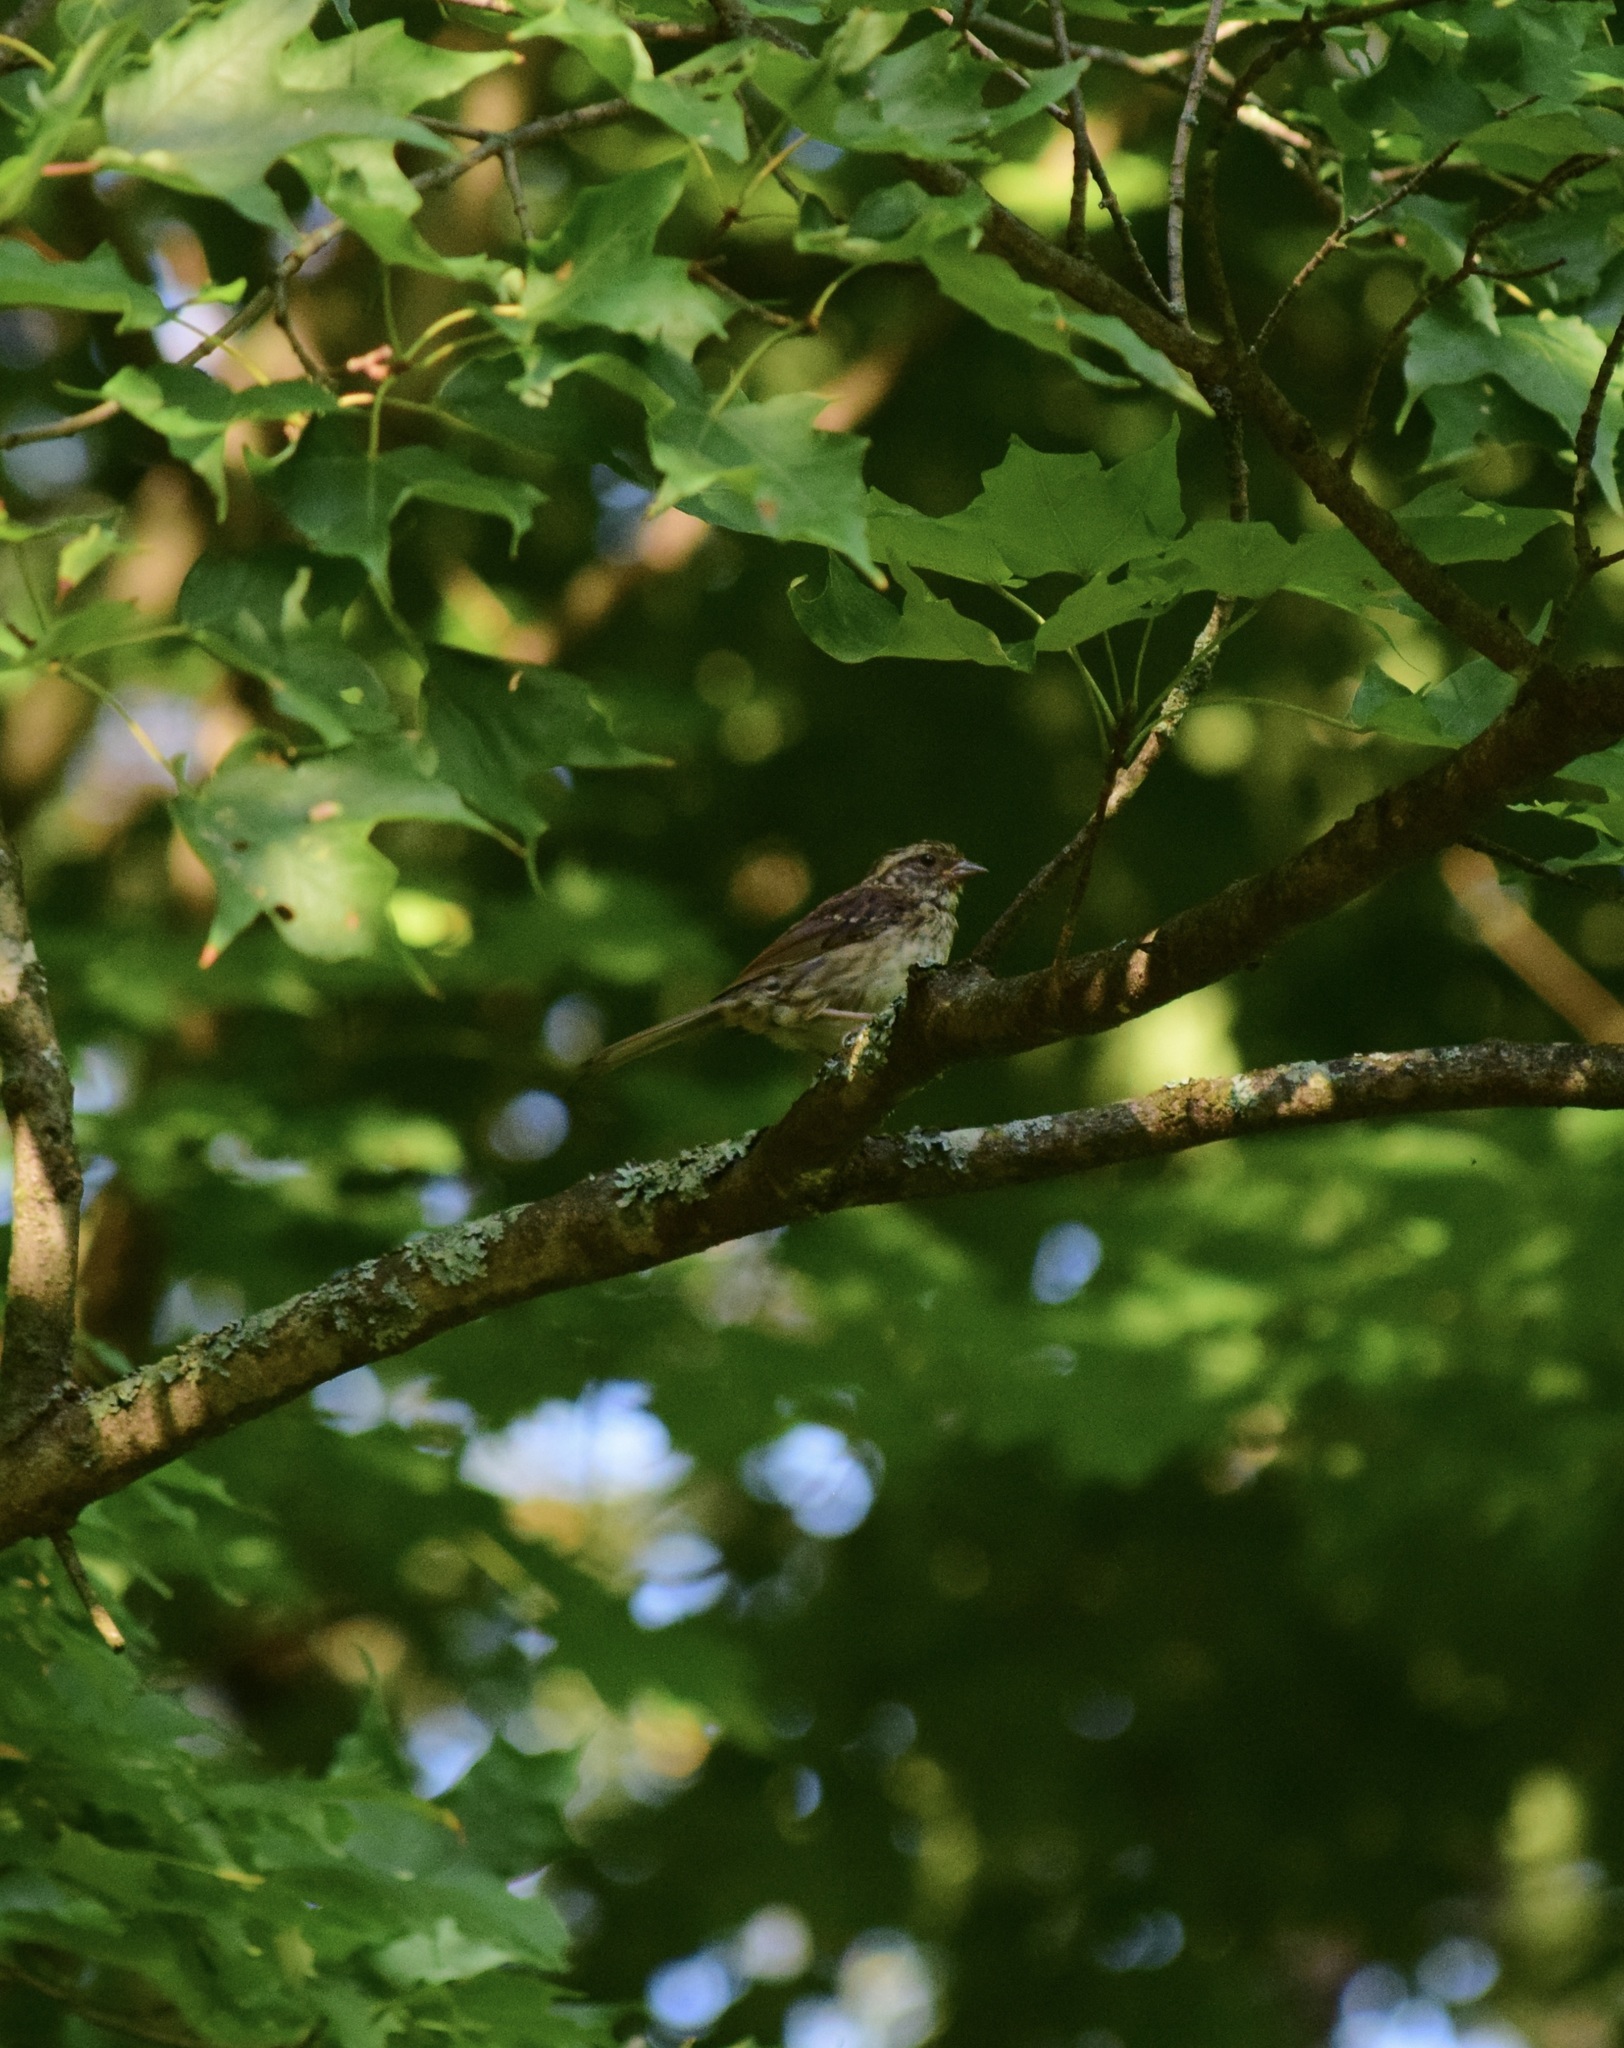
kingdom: Animalia
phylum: Chordata
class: Aves
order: Passeriformes
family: Passerellidae
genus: Zonotrichia
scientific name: Zonotrichia albicollis
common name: White-throated sparrow
